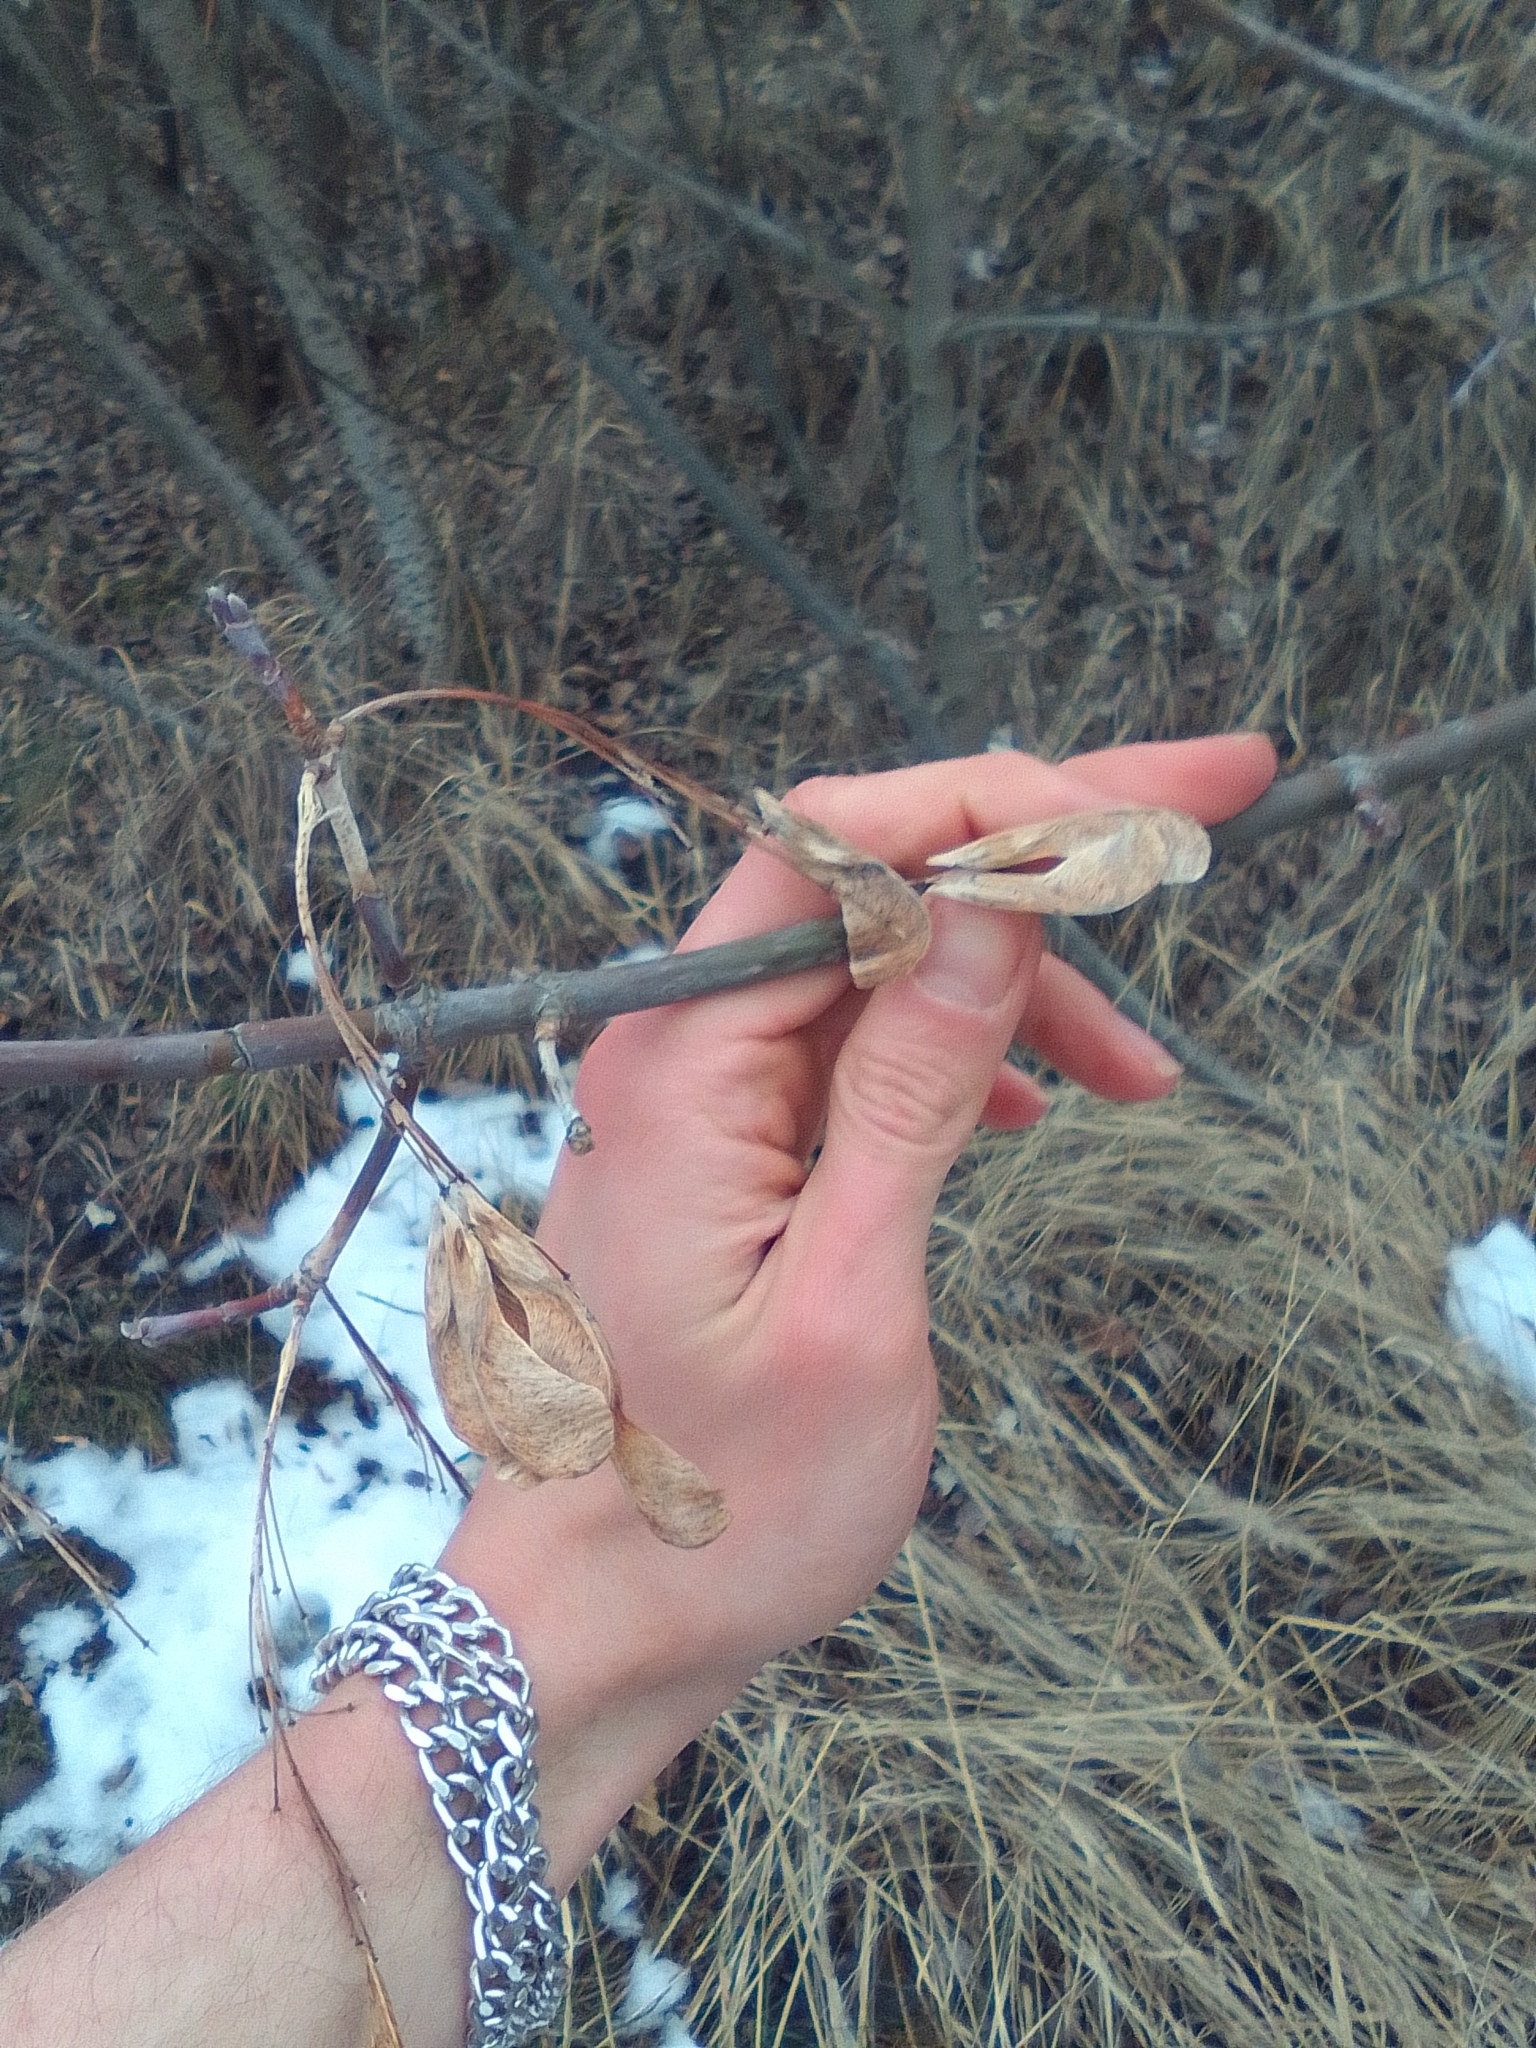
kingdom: Plantae
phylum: Tracheophyta
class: Magnoliopsida
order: Sapindales
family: Sapindaceae
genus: Acer
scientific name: Acer negundo
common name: Ashleaf maple
